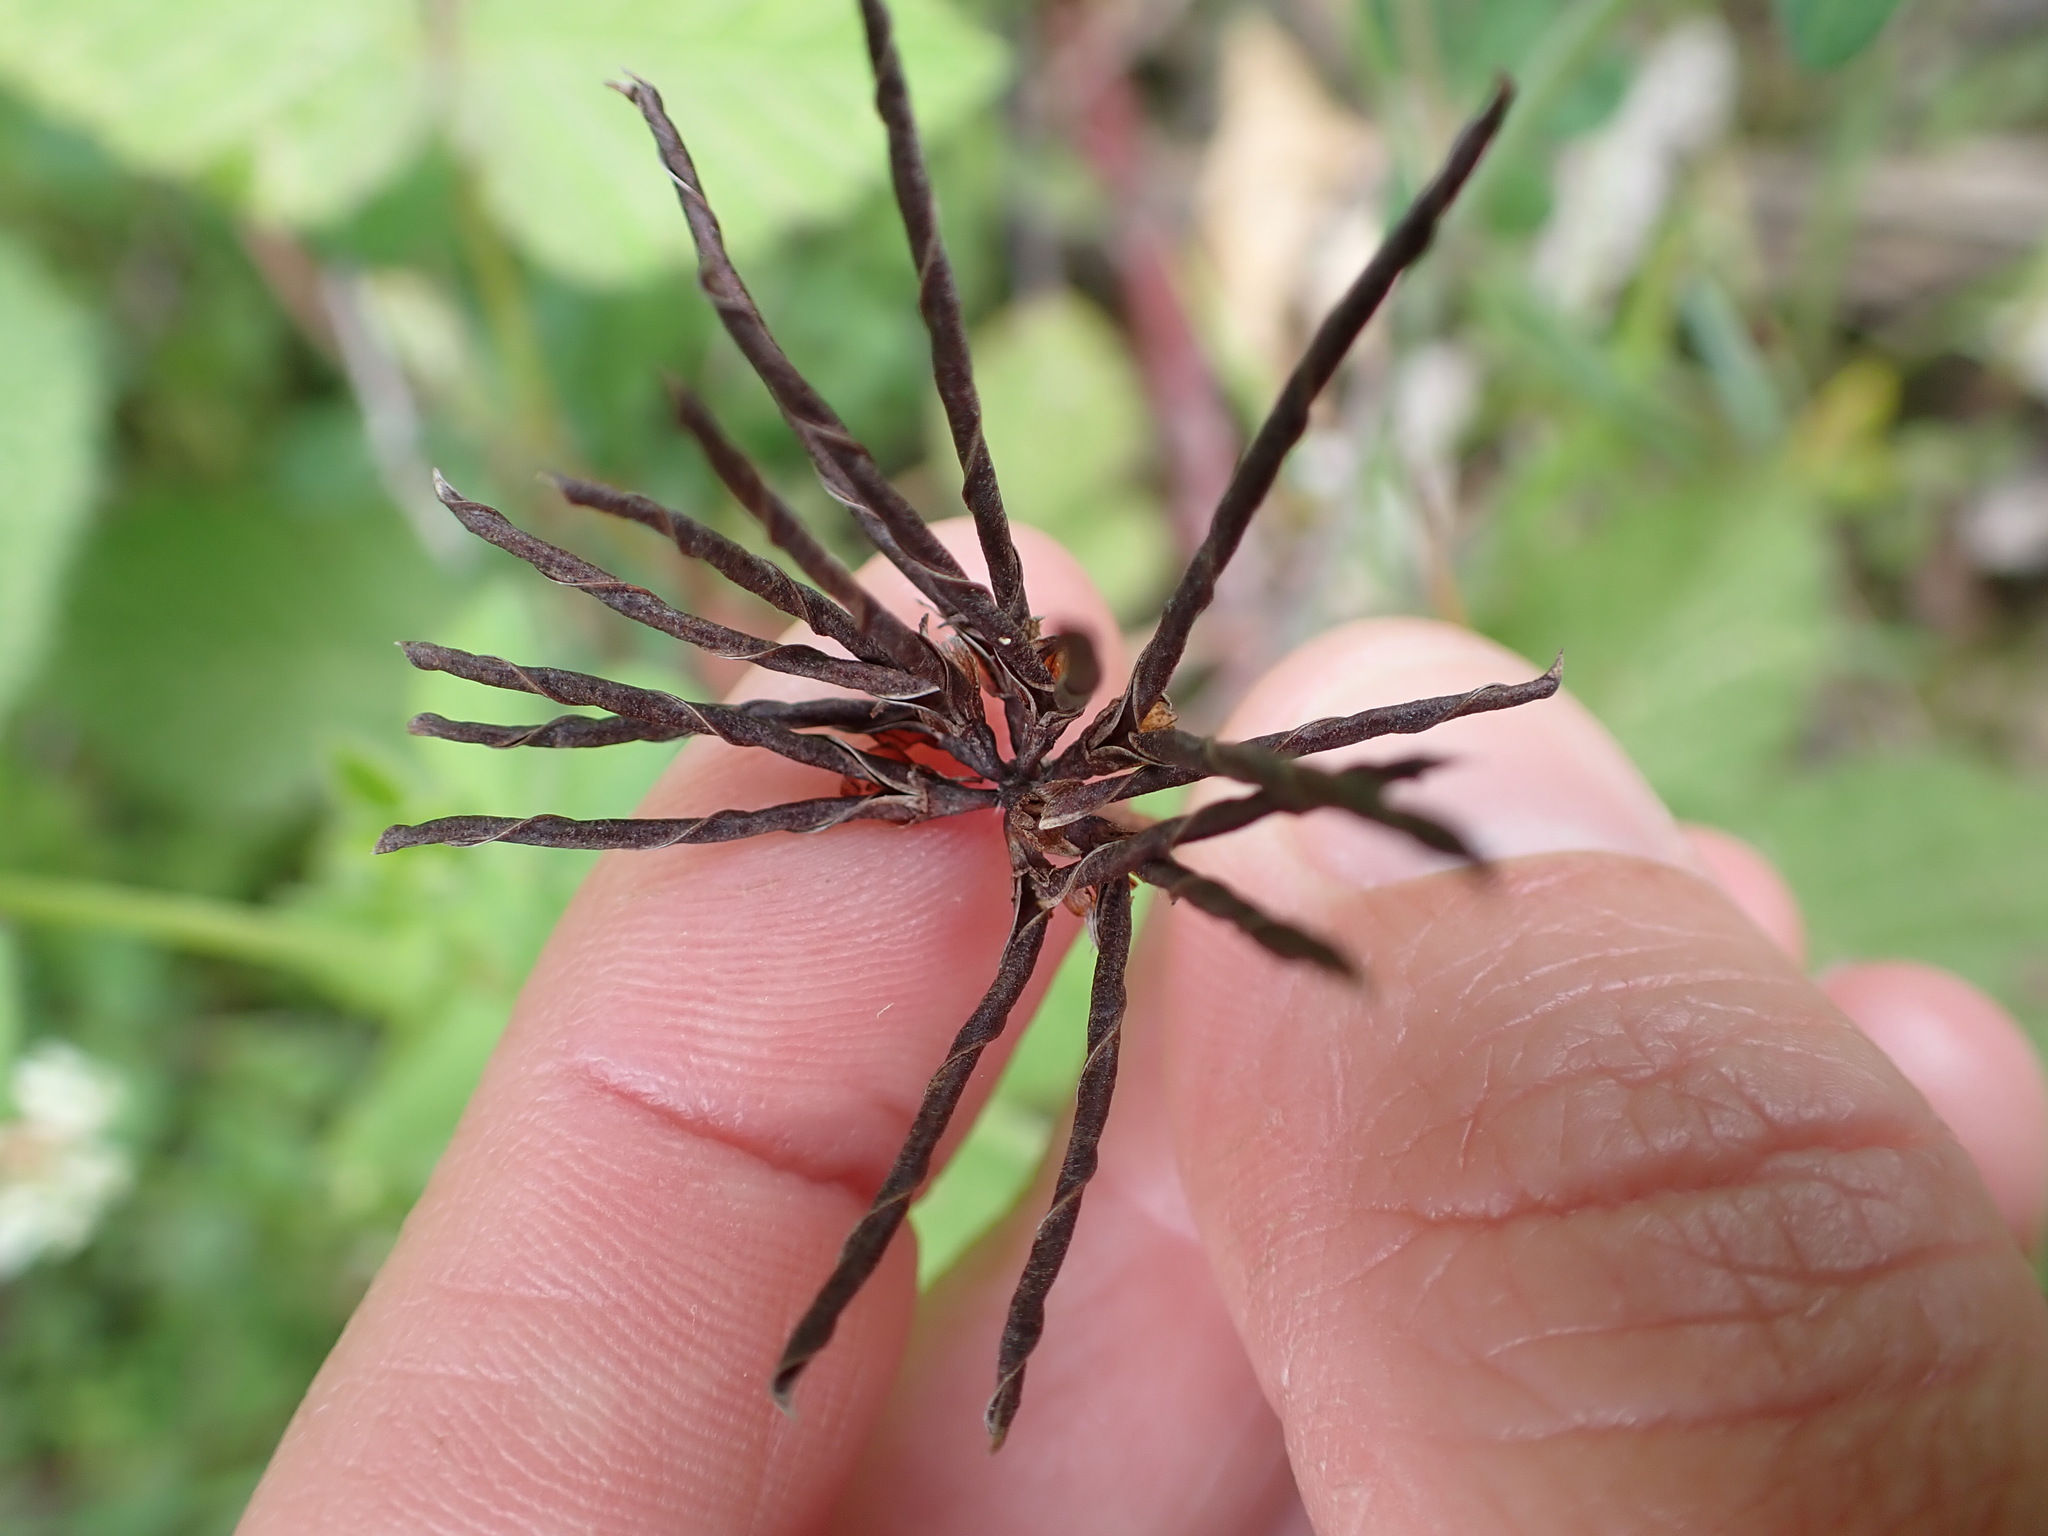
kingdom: Plantae
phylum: Tracheophyta
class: Magnoliopsida
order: Fabales
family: Fabaceae
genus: Lotus
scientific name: Lotus
